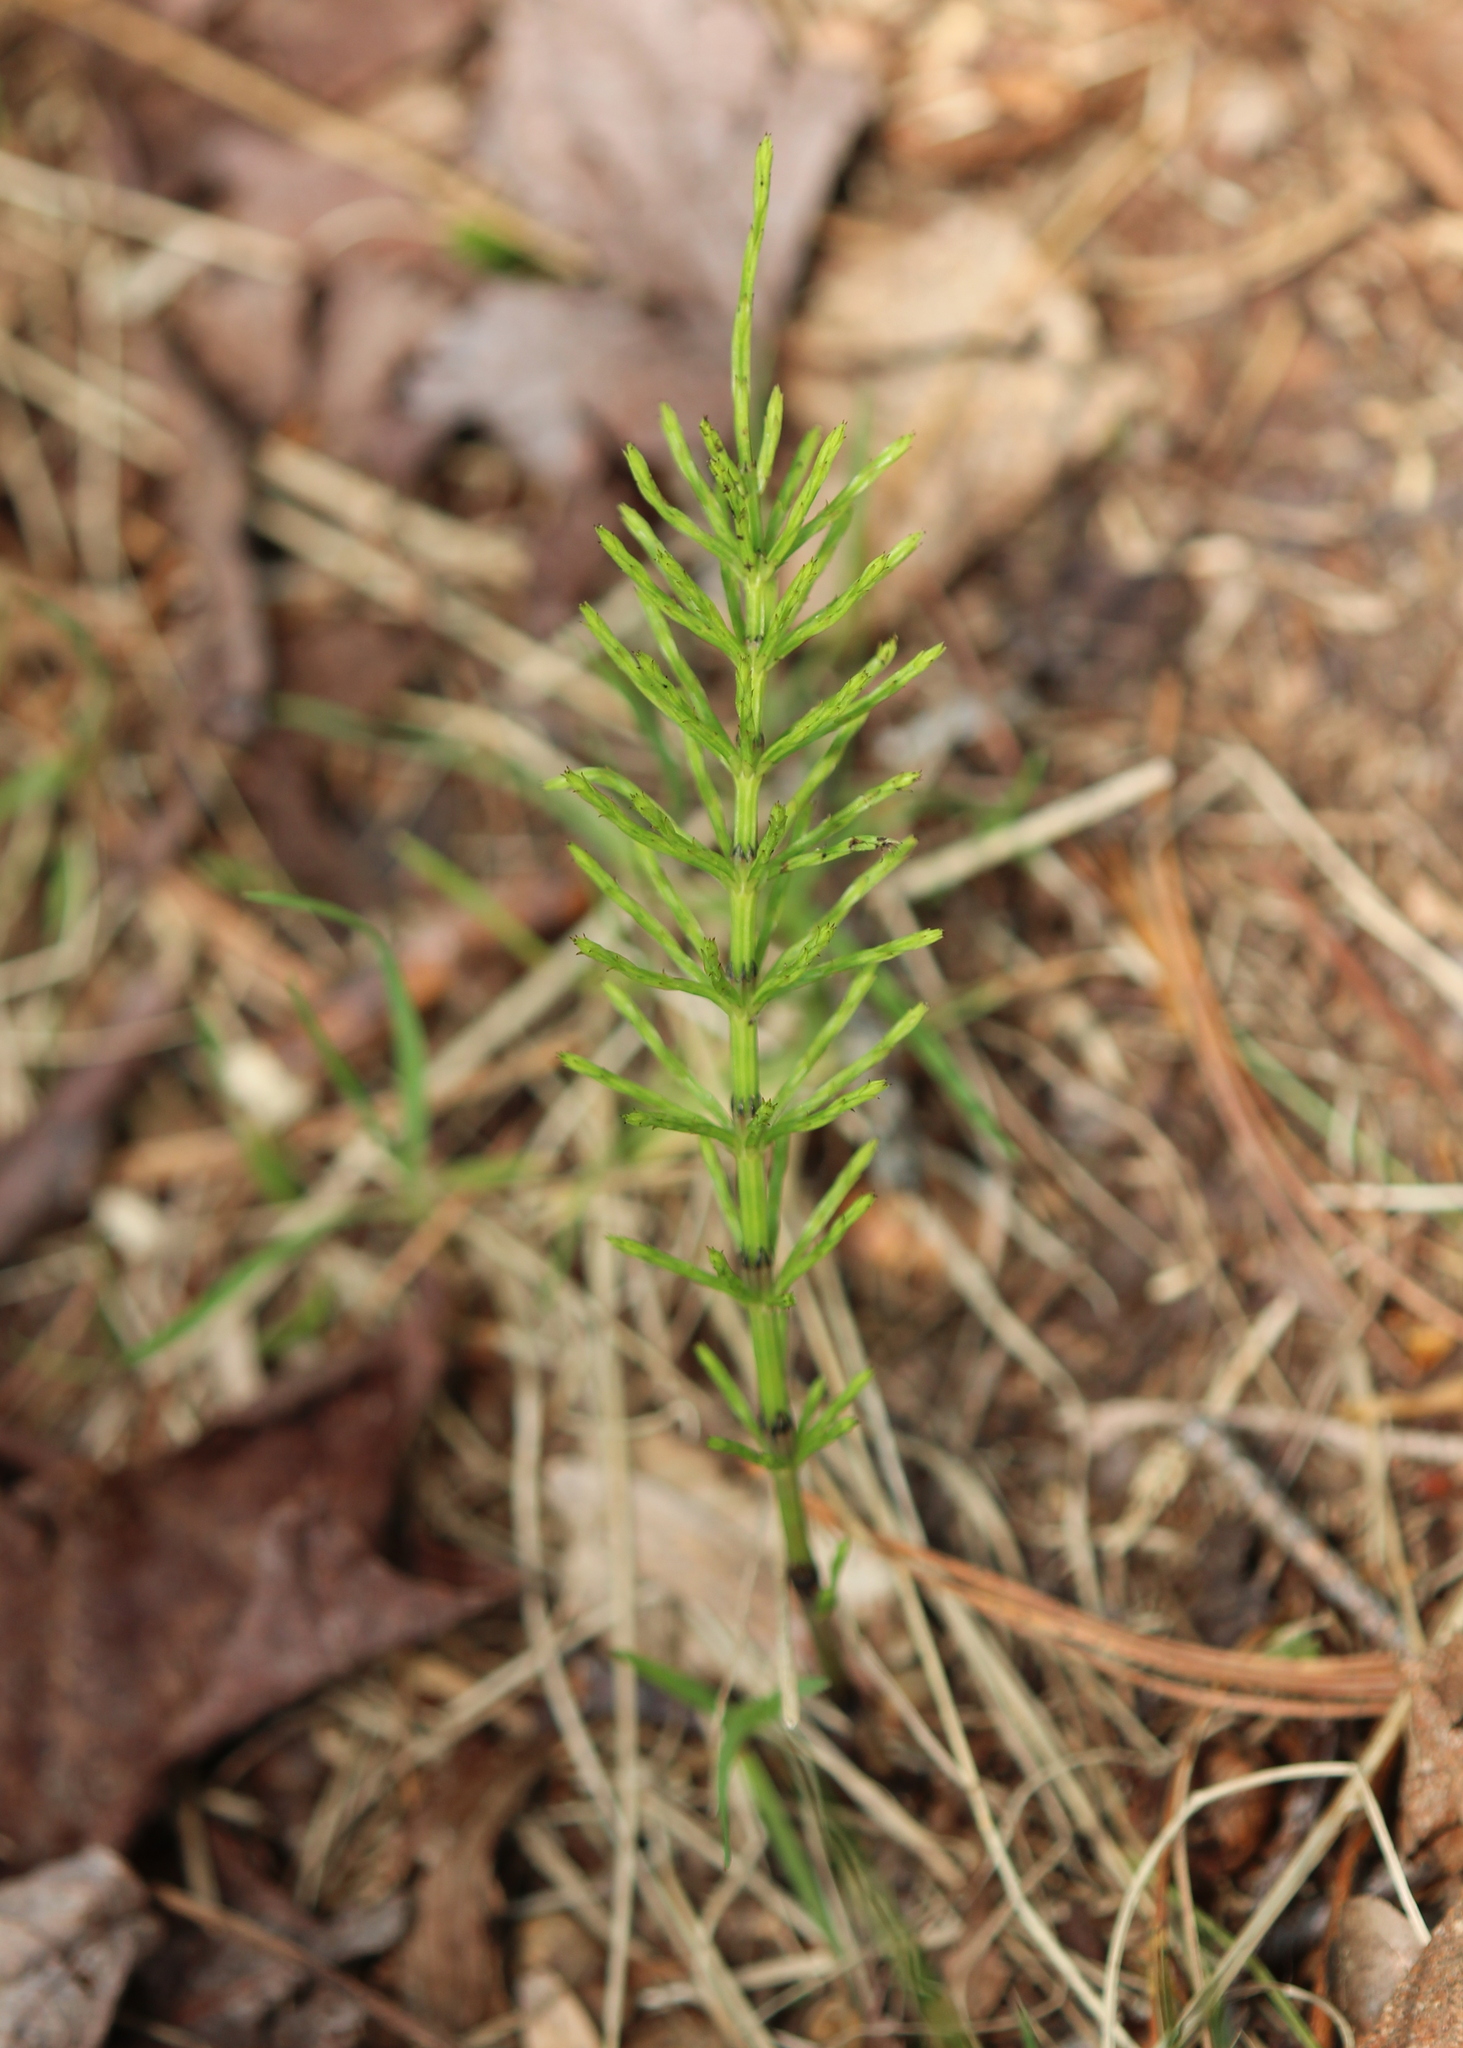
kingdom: Plantae
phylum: Tracheophyta
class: Polypodiopsida
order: Equisetales
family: Equisetaceae
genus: Equisetum
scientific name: Equisetum arvense
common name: Field horsetail
